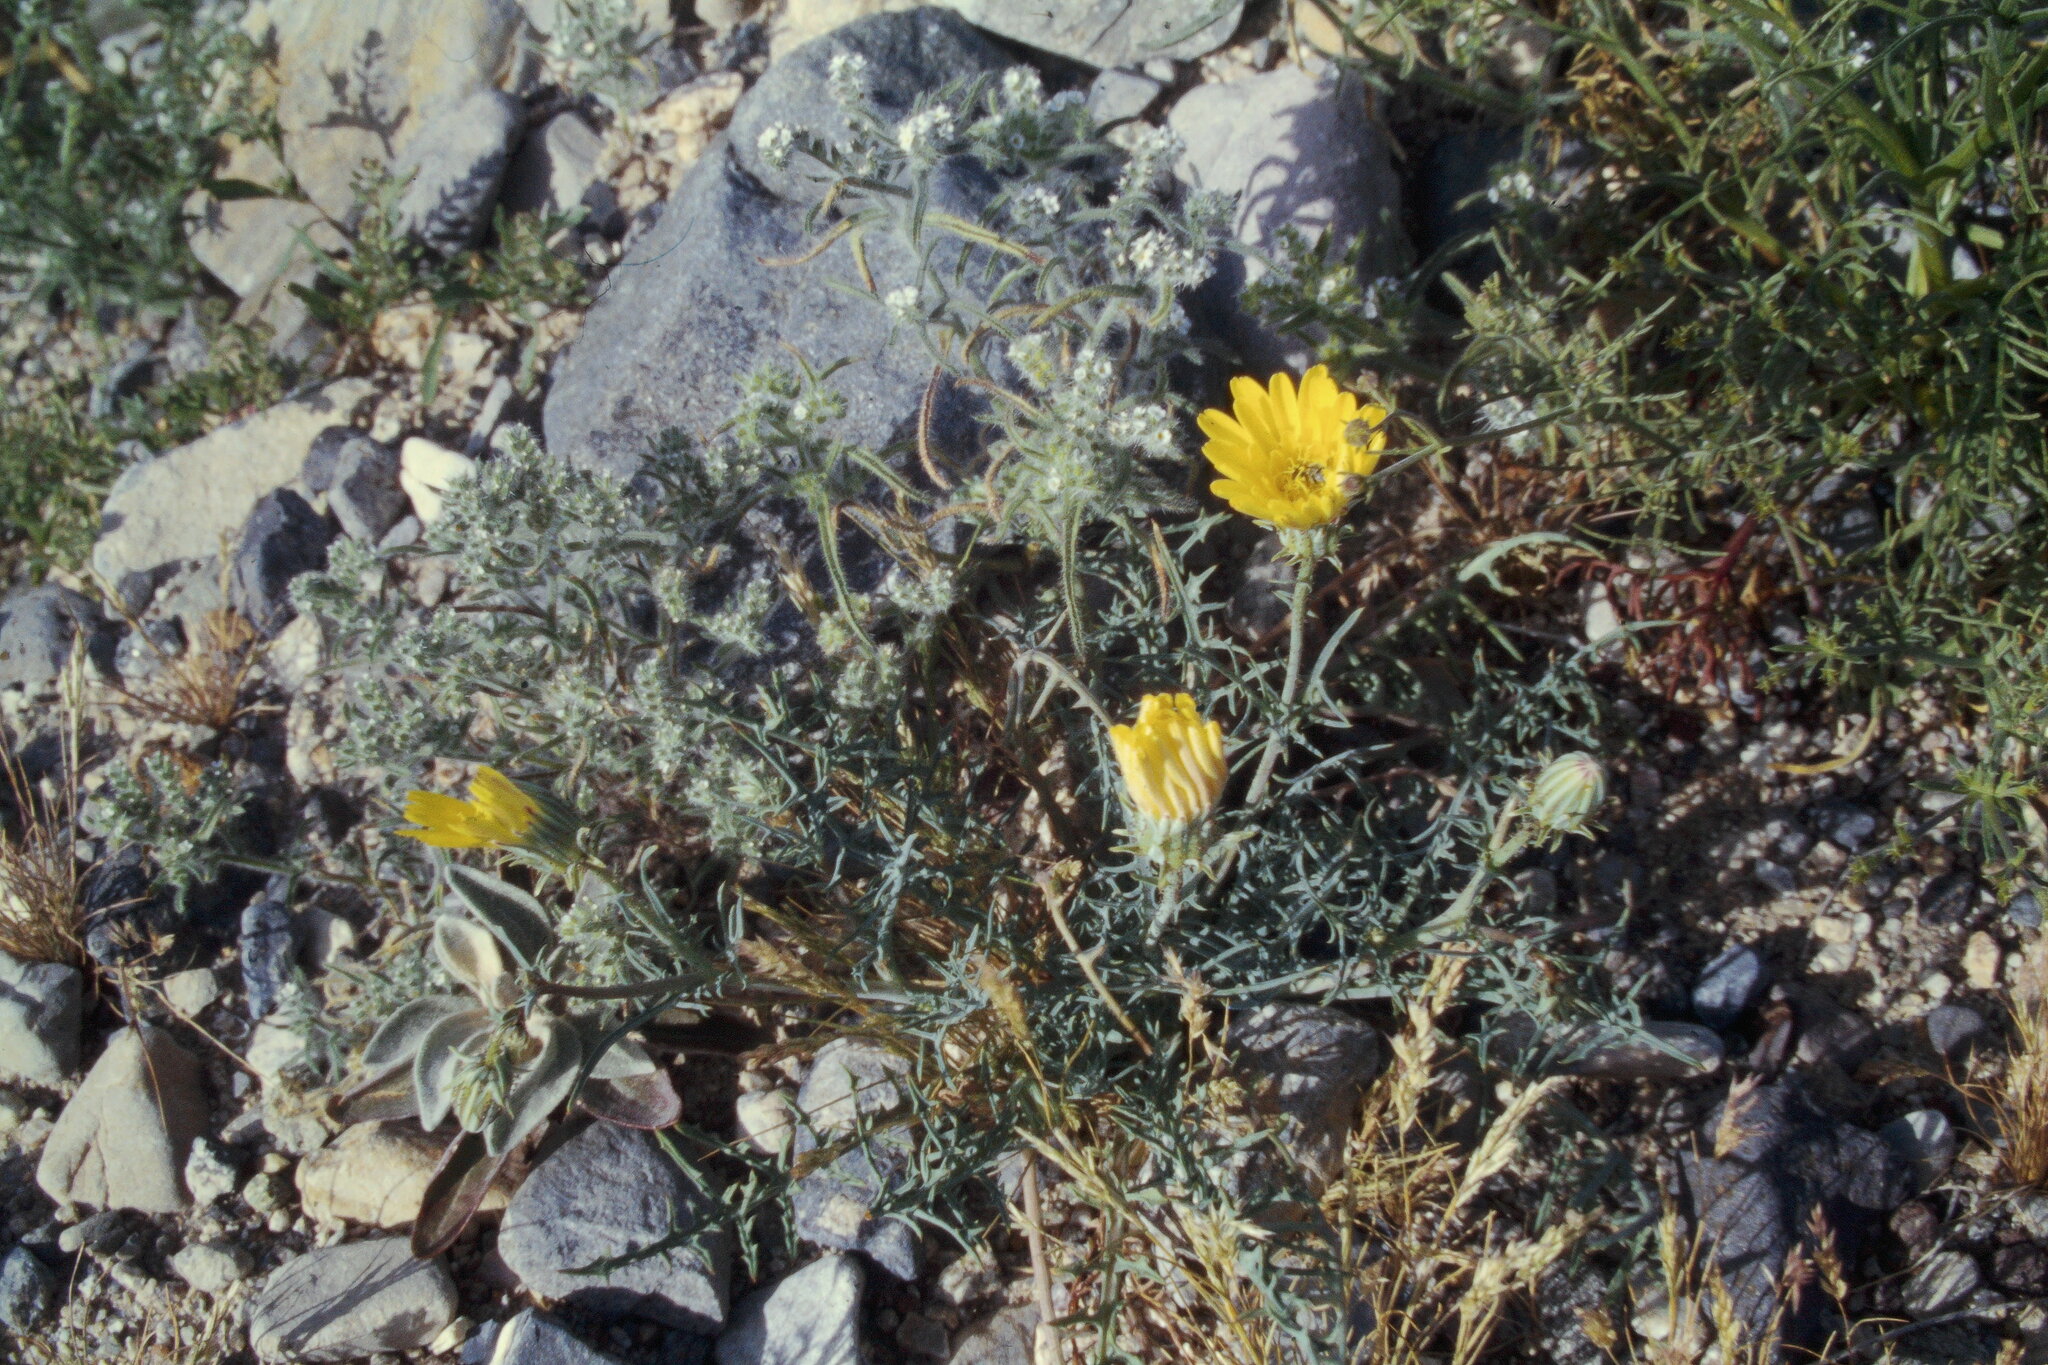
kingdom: Plantae
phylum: Tracheophyta
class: Magnoliopsida
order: Asterales
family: Asteraceae
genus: Calycoseris
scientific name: Calycoseris parryi
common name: Yellow tackstem
